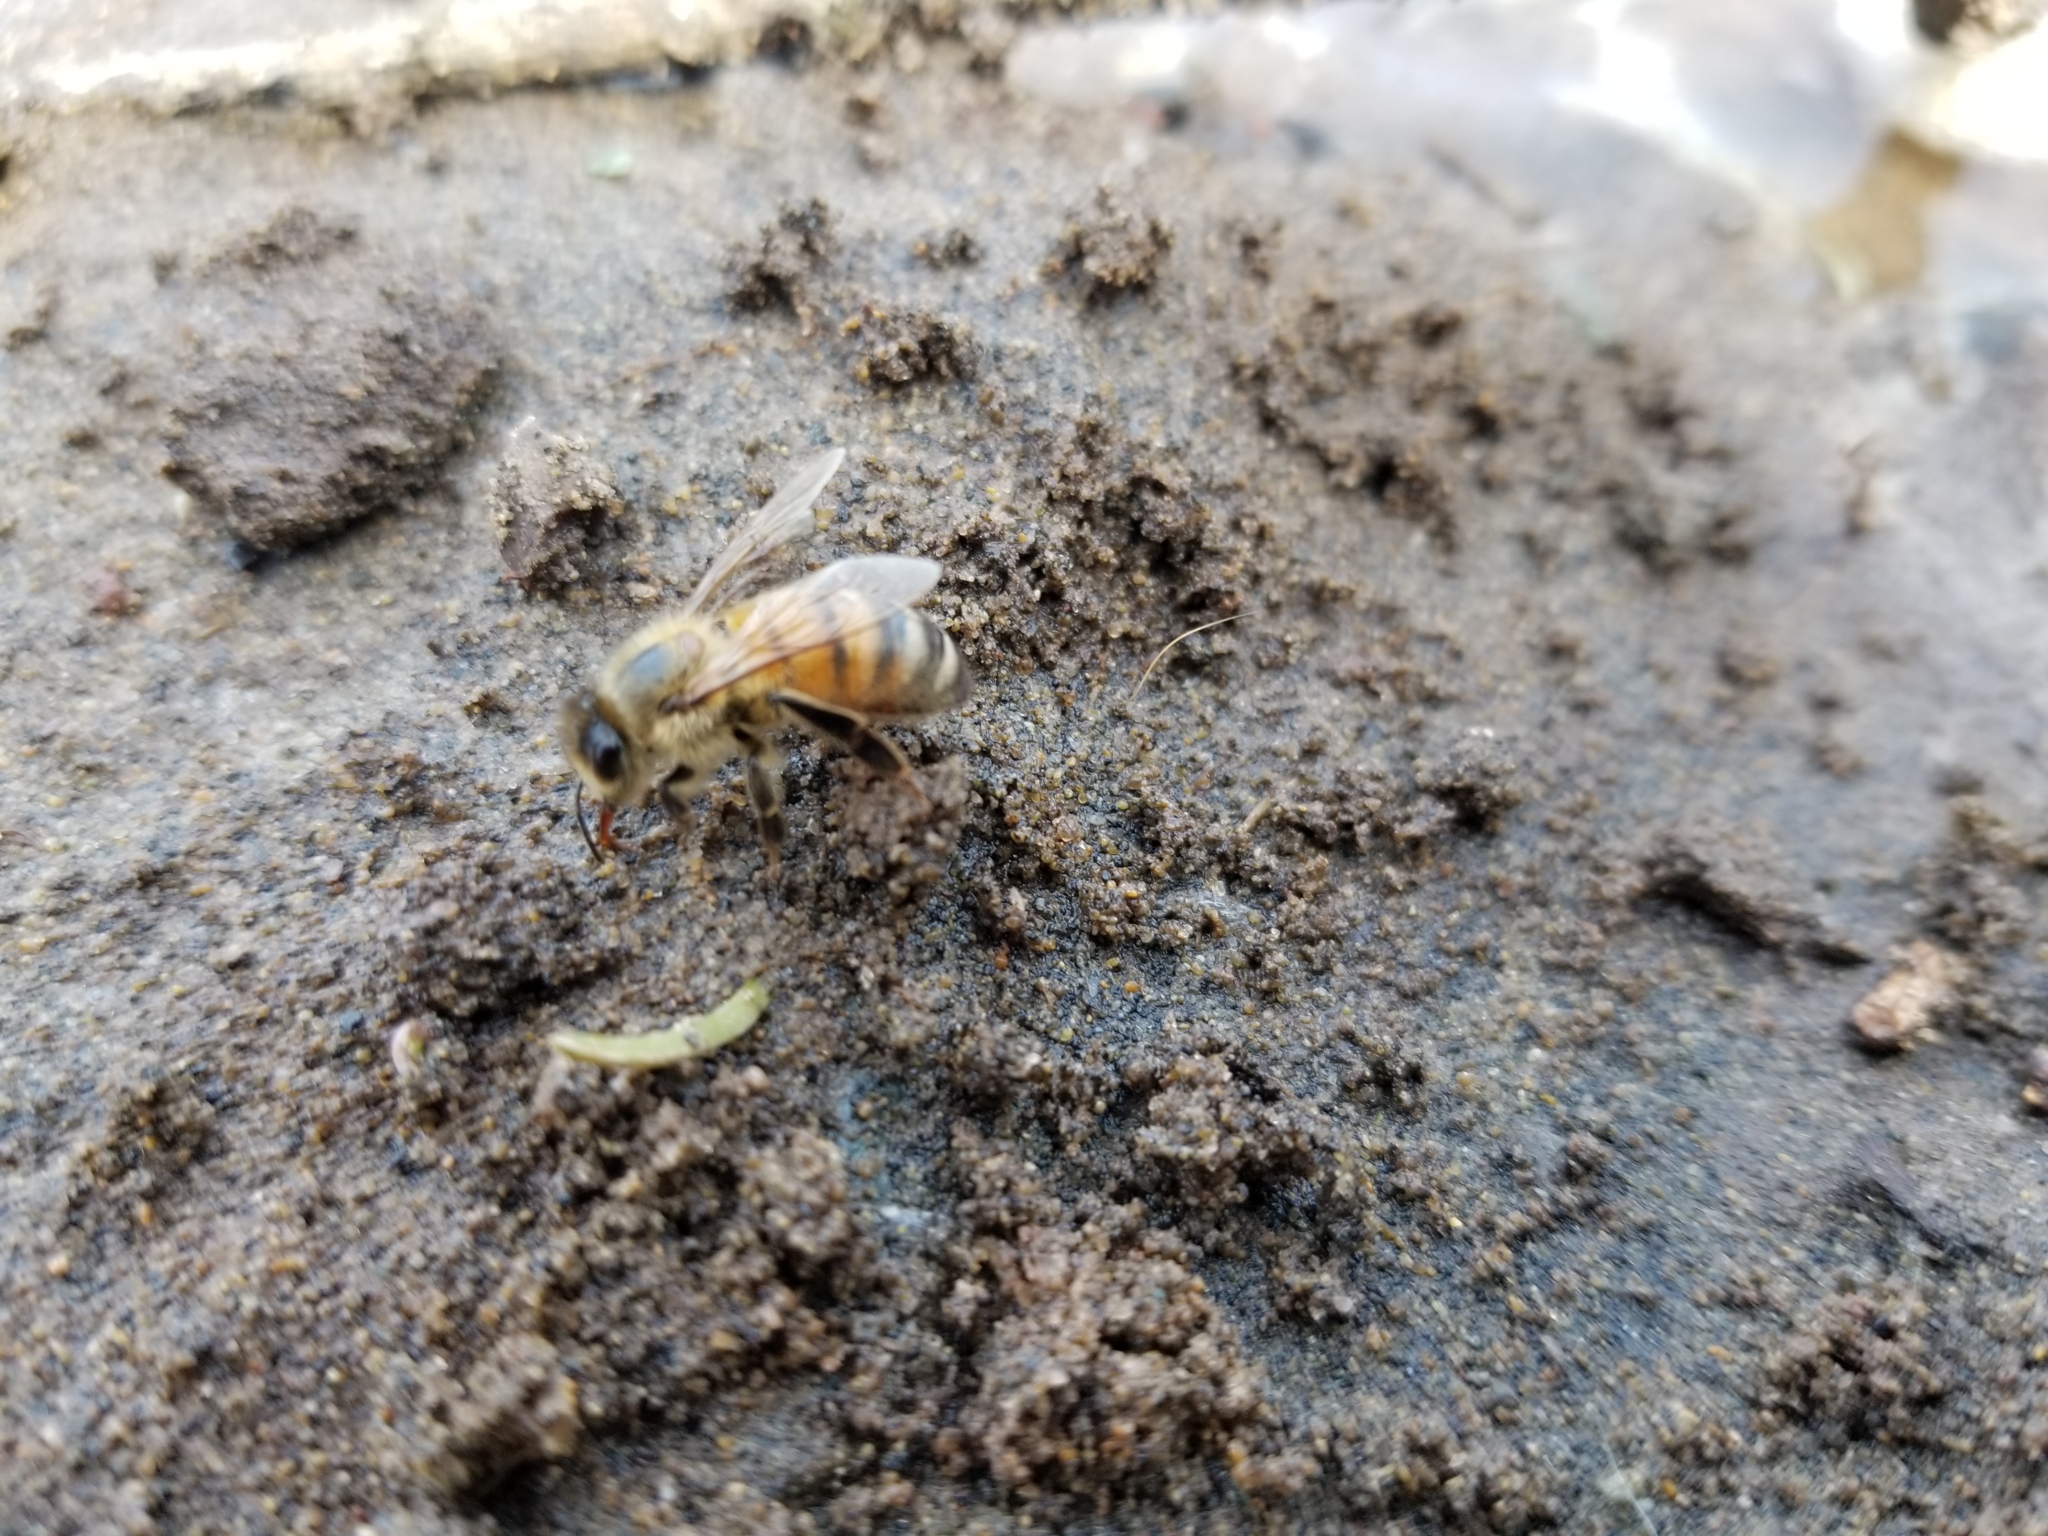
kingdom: Animalia
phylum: Arthropoda
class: Insecta
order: Hymenoptera
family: Apidae
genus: Apis
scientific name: Apis mellifera
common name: Honey bee
